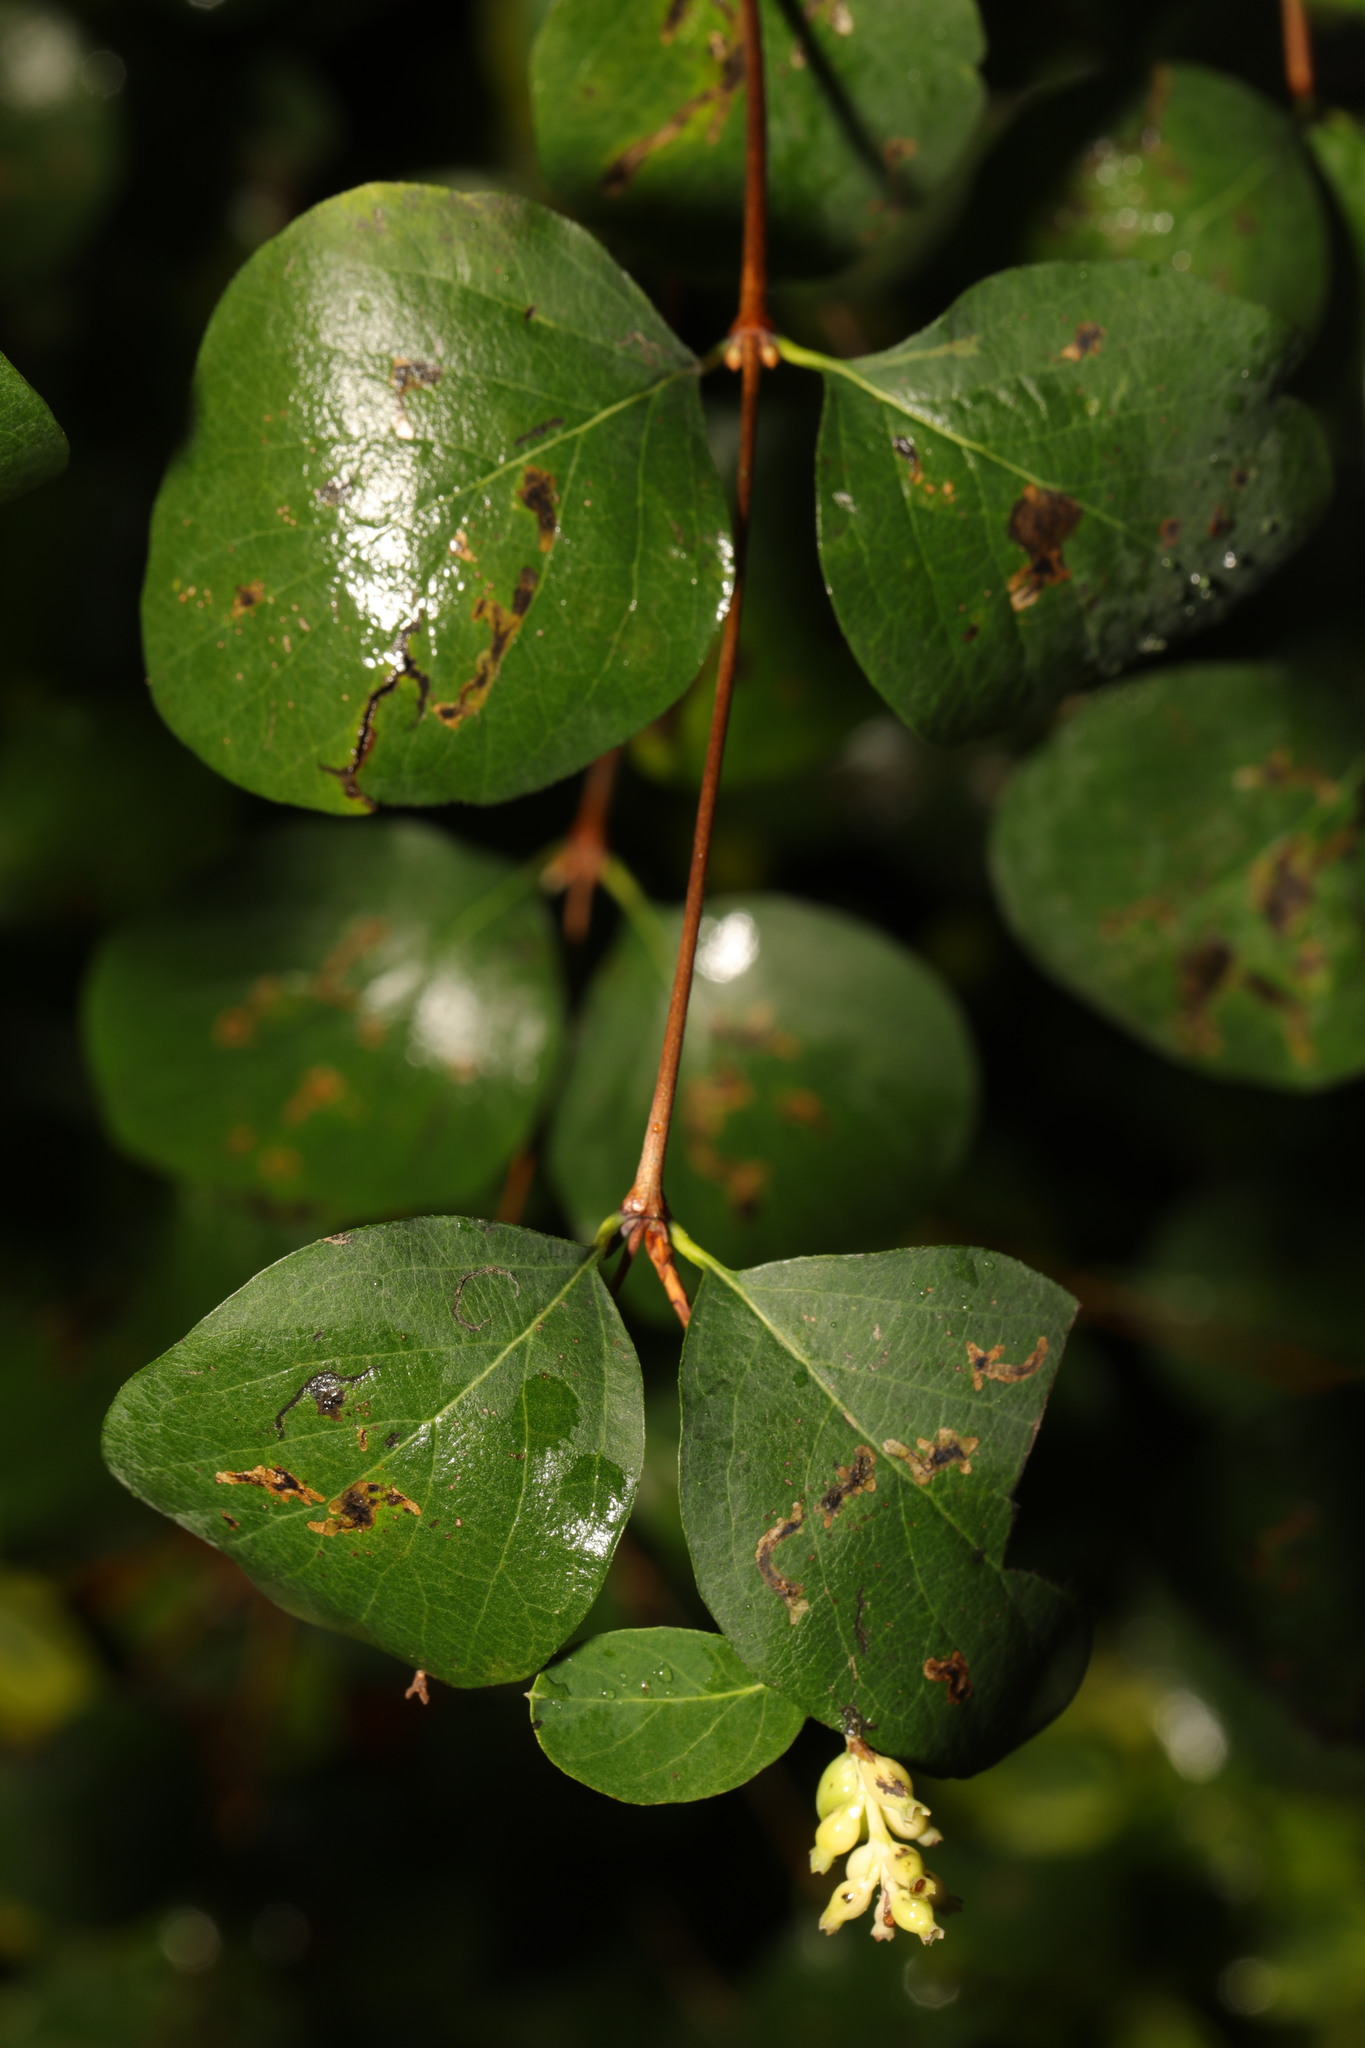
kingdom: Plantae
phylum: Tracheophyta
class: Magnoliopsida
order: Dipsacales
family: Caprifoliaceae
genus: Symphoricarpos
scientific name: Symphoricarpos albus
